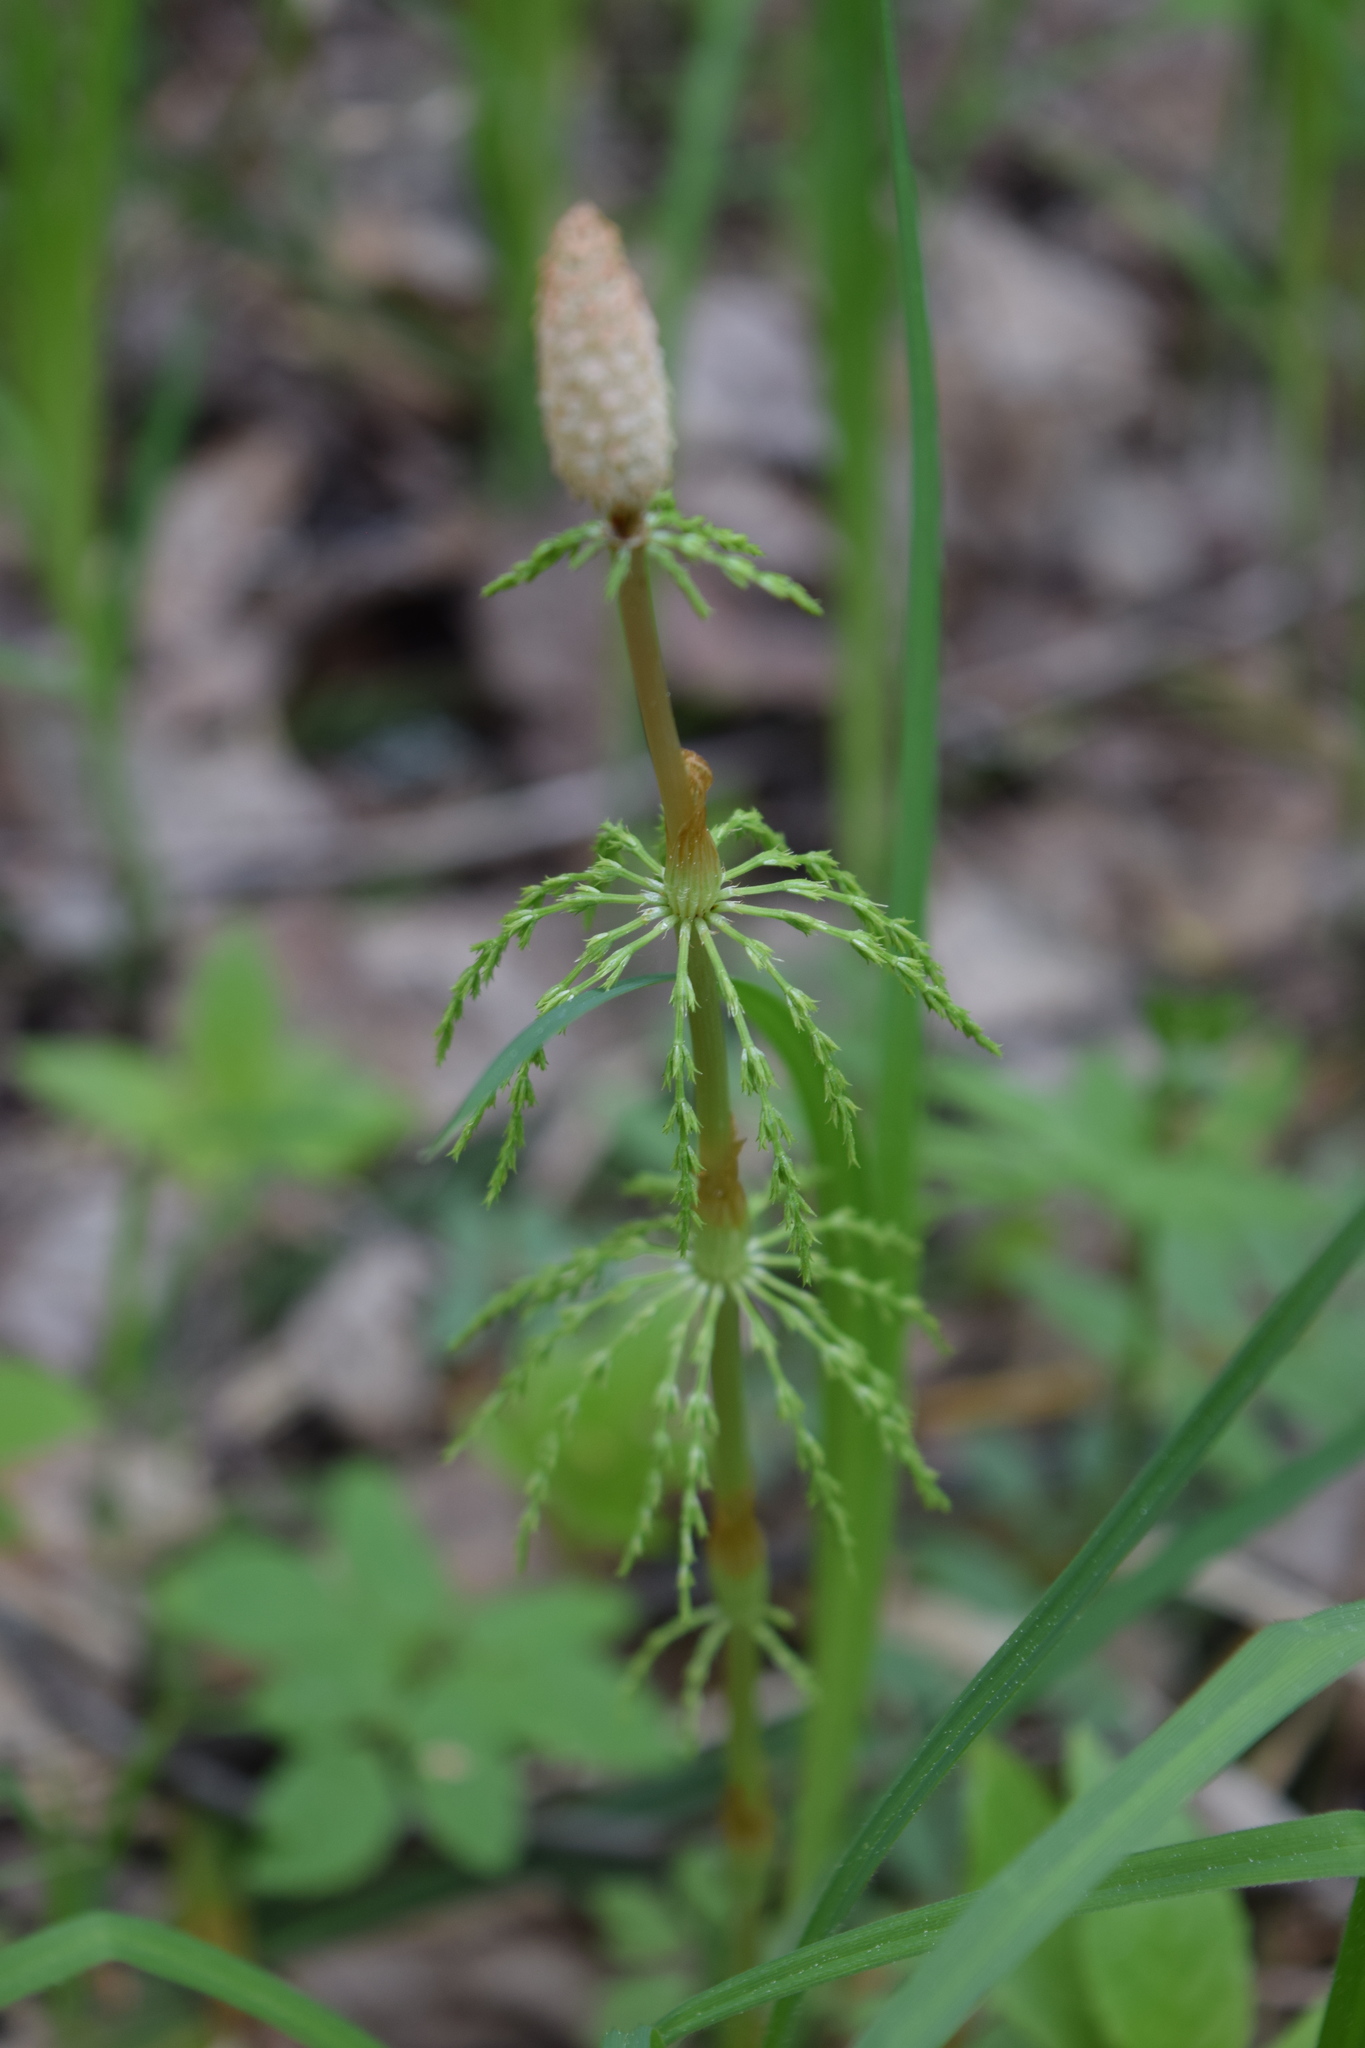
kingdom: Plantae
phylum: Tracheophyta
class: Polypodiopsida
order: Equisetales
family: Equisetaceae
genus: Equisetum
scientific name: Equisetum sylvaticum
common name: Wood horsetail
